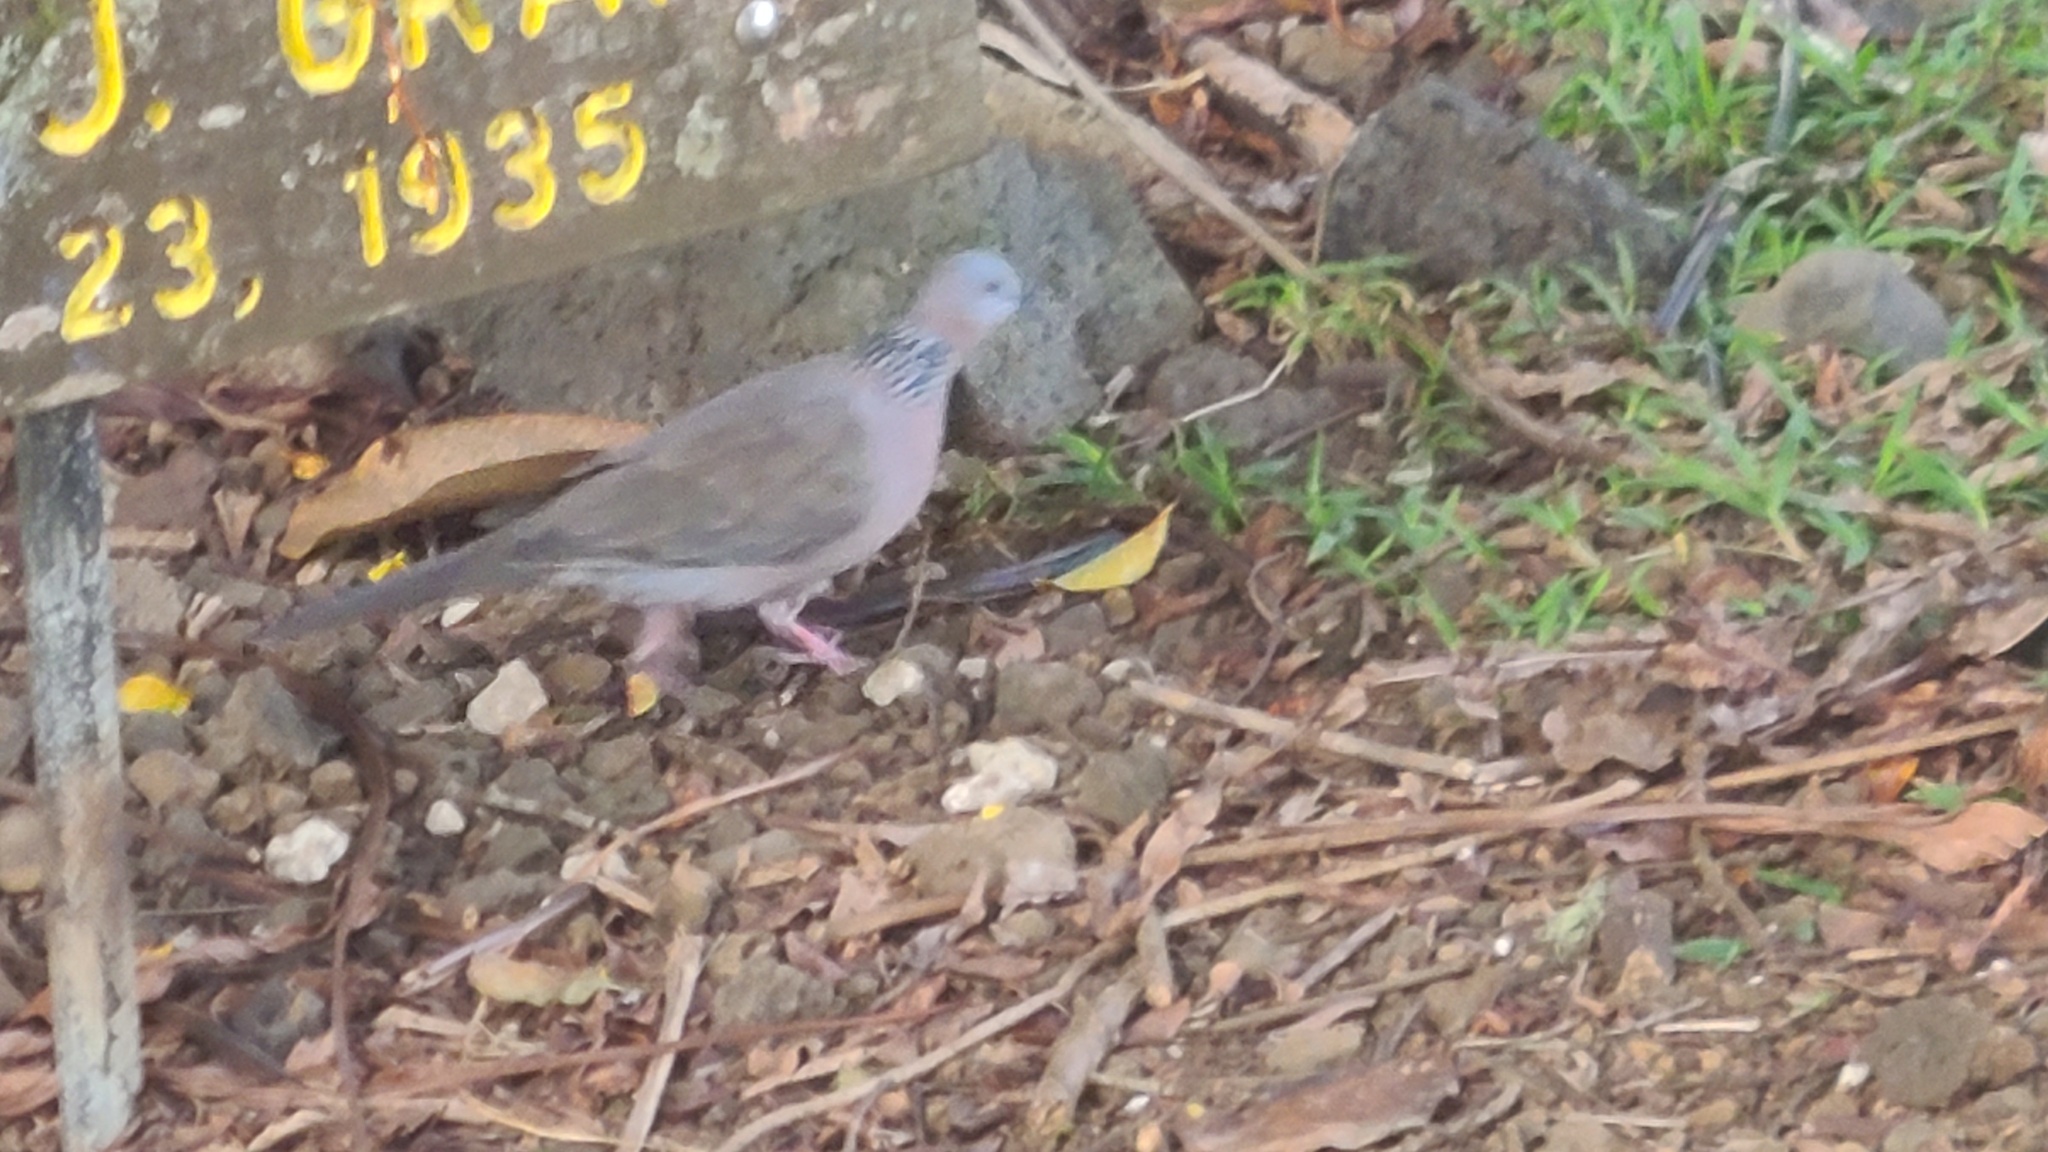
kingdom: Animalia
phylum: Chordata
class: Aves
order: Columbiformes
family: Columbidae
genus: Spilopelia
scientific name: Spilopelia chinensis
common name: Spotted dove
